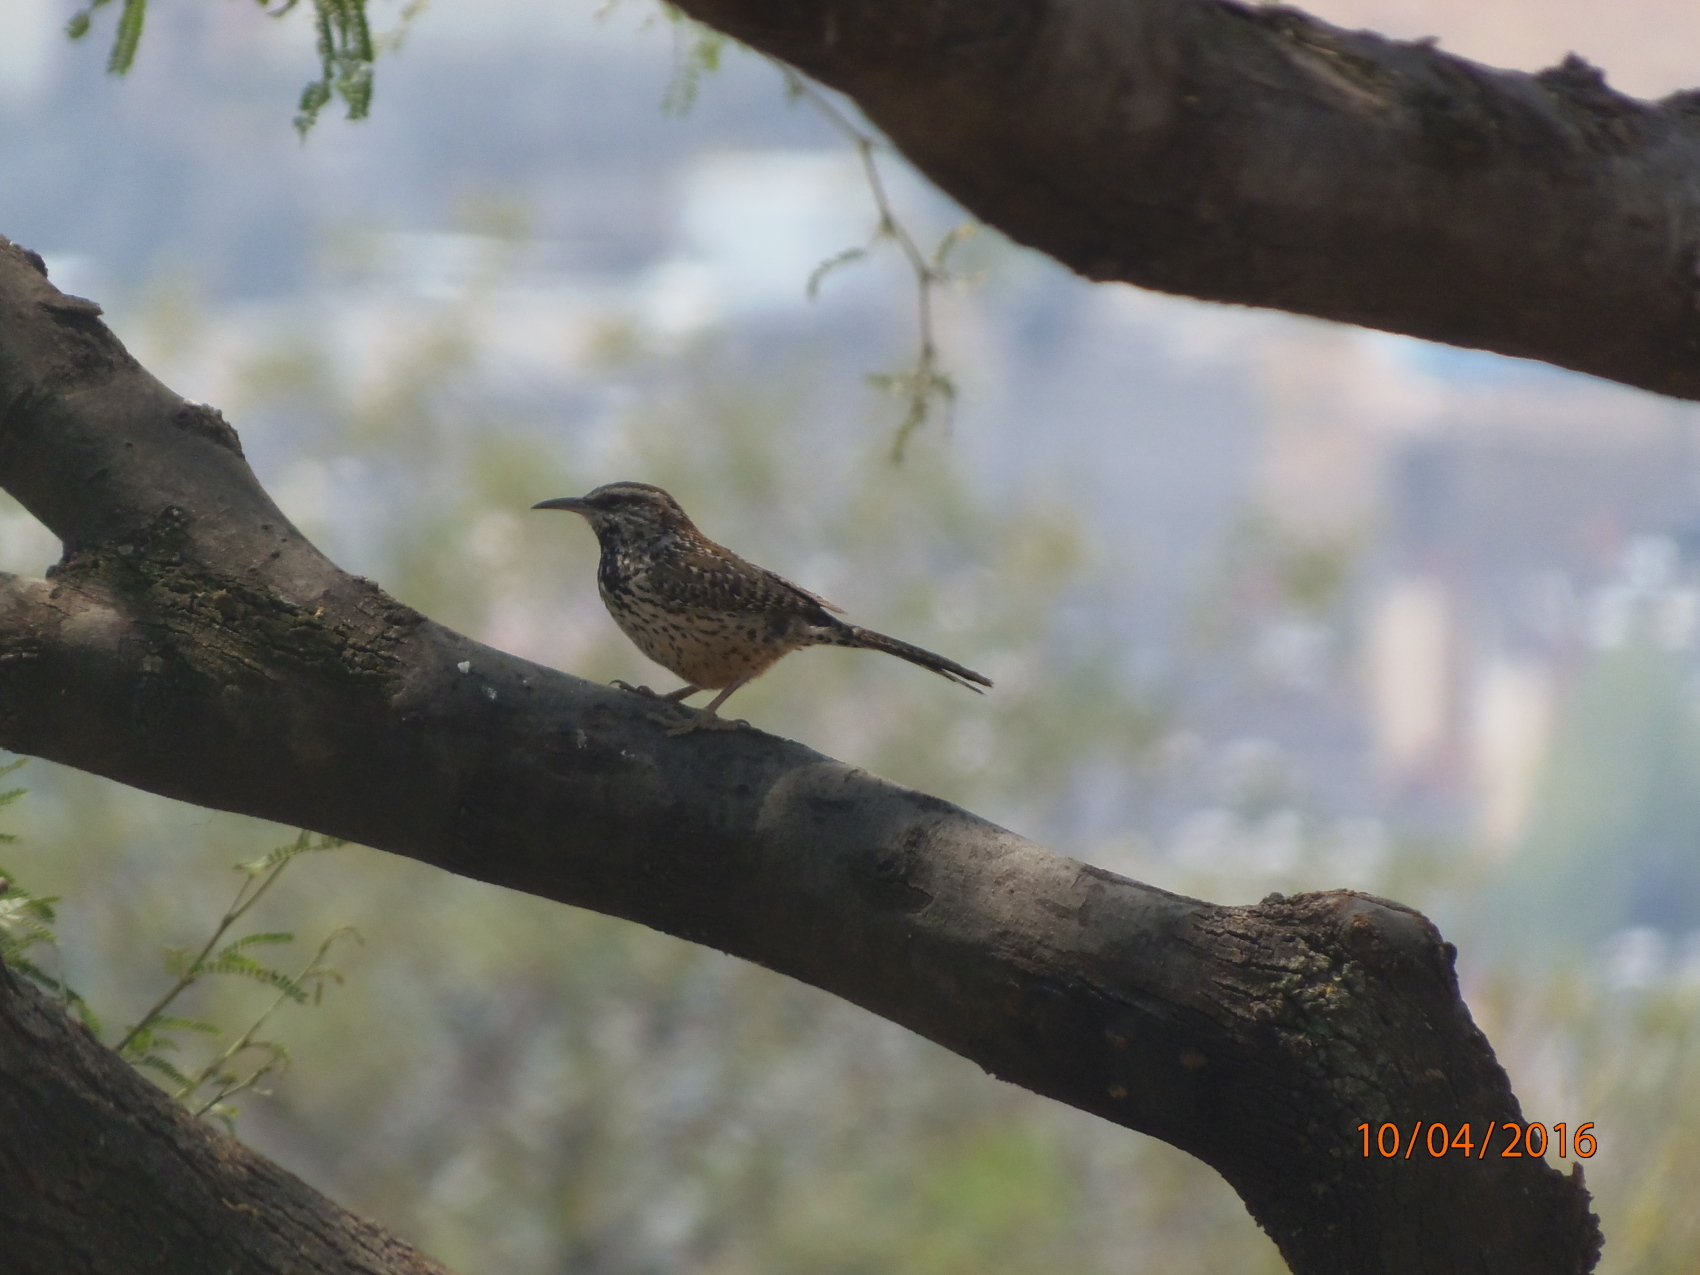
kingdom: Animalia
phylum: Chordata
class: Aves
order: Passeriformes
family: Troglodytidae
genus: Campylorhynchus
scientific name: Campylorhynchus brunneicapillus
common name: Cactus wren
